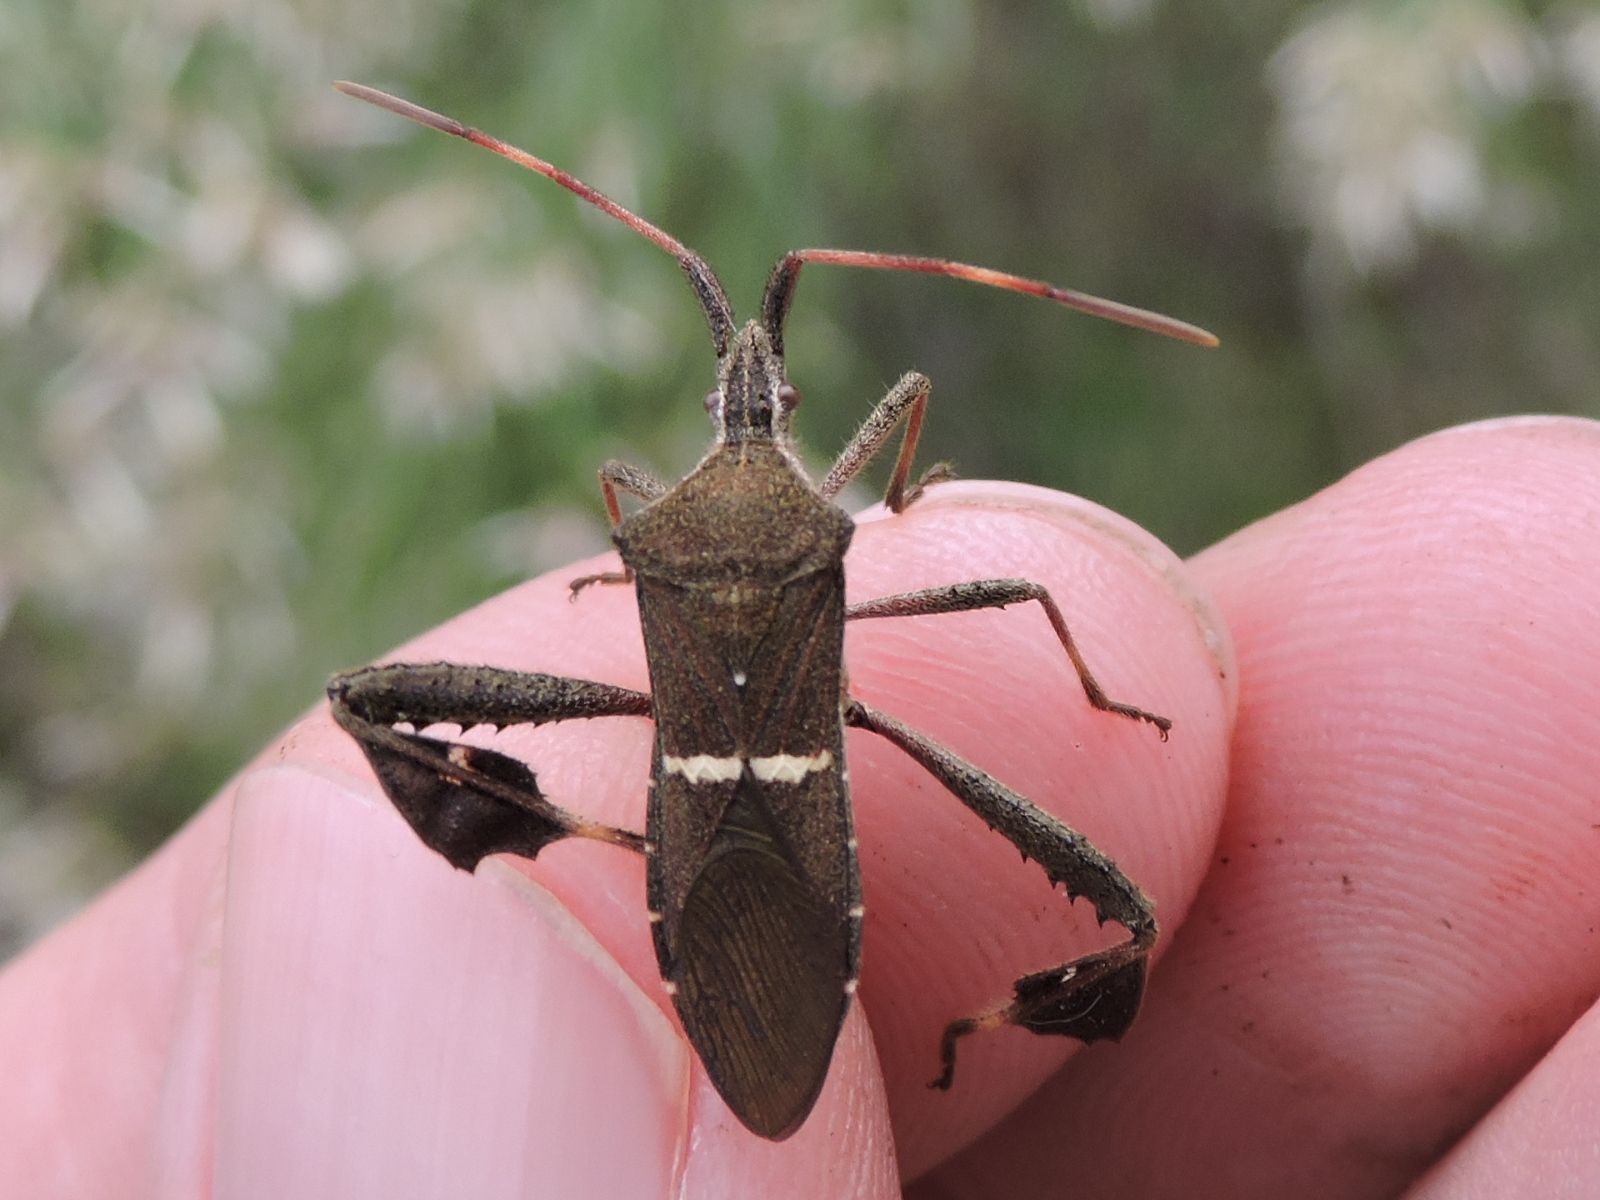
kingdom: Animalia
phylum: Arthropoda
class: Insecta
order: Hemiptera
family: Coreidae
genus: Leptoglossus
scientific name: Leptoglossus phyllopus
